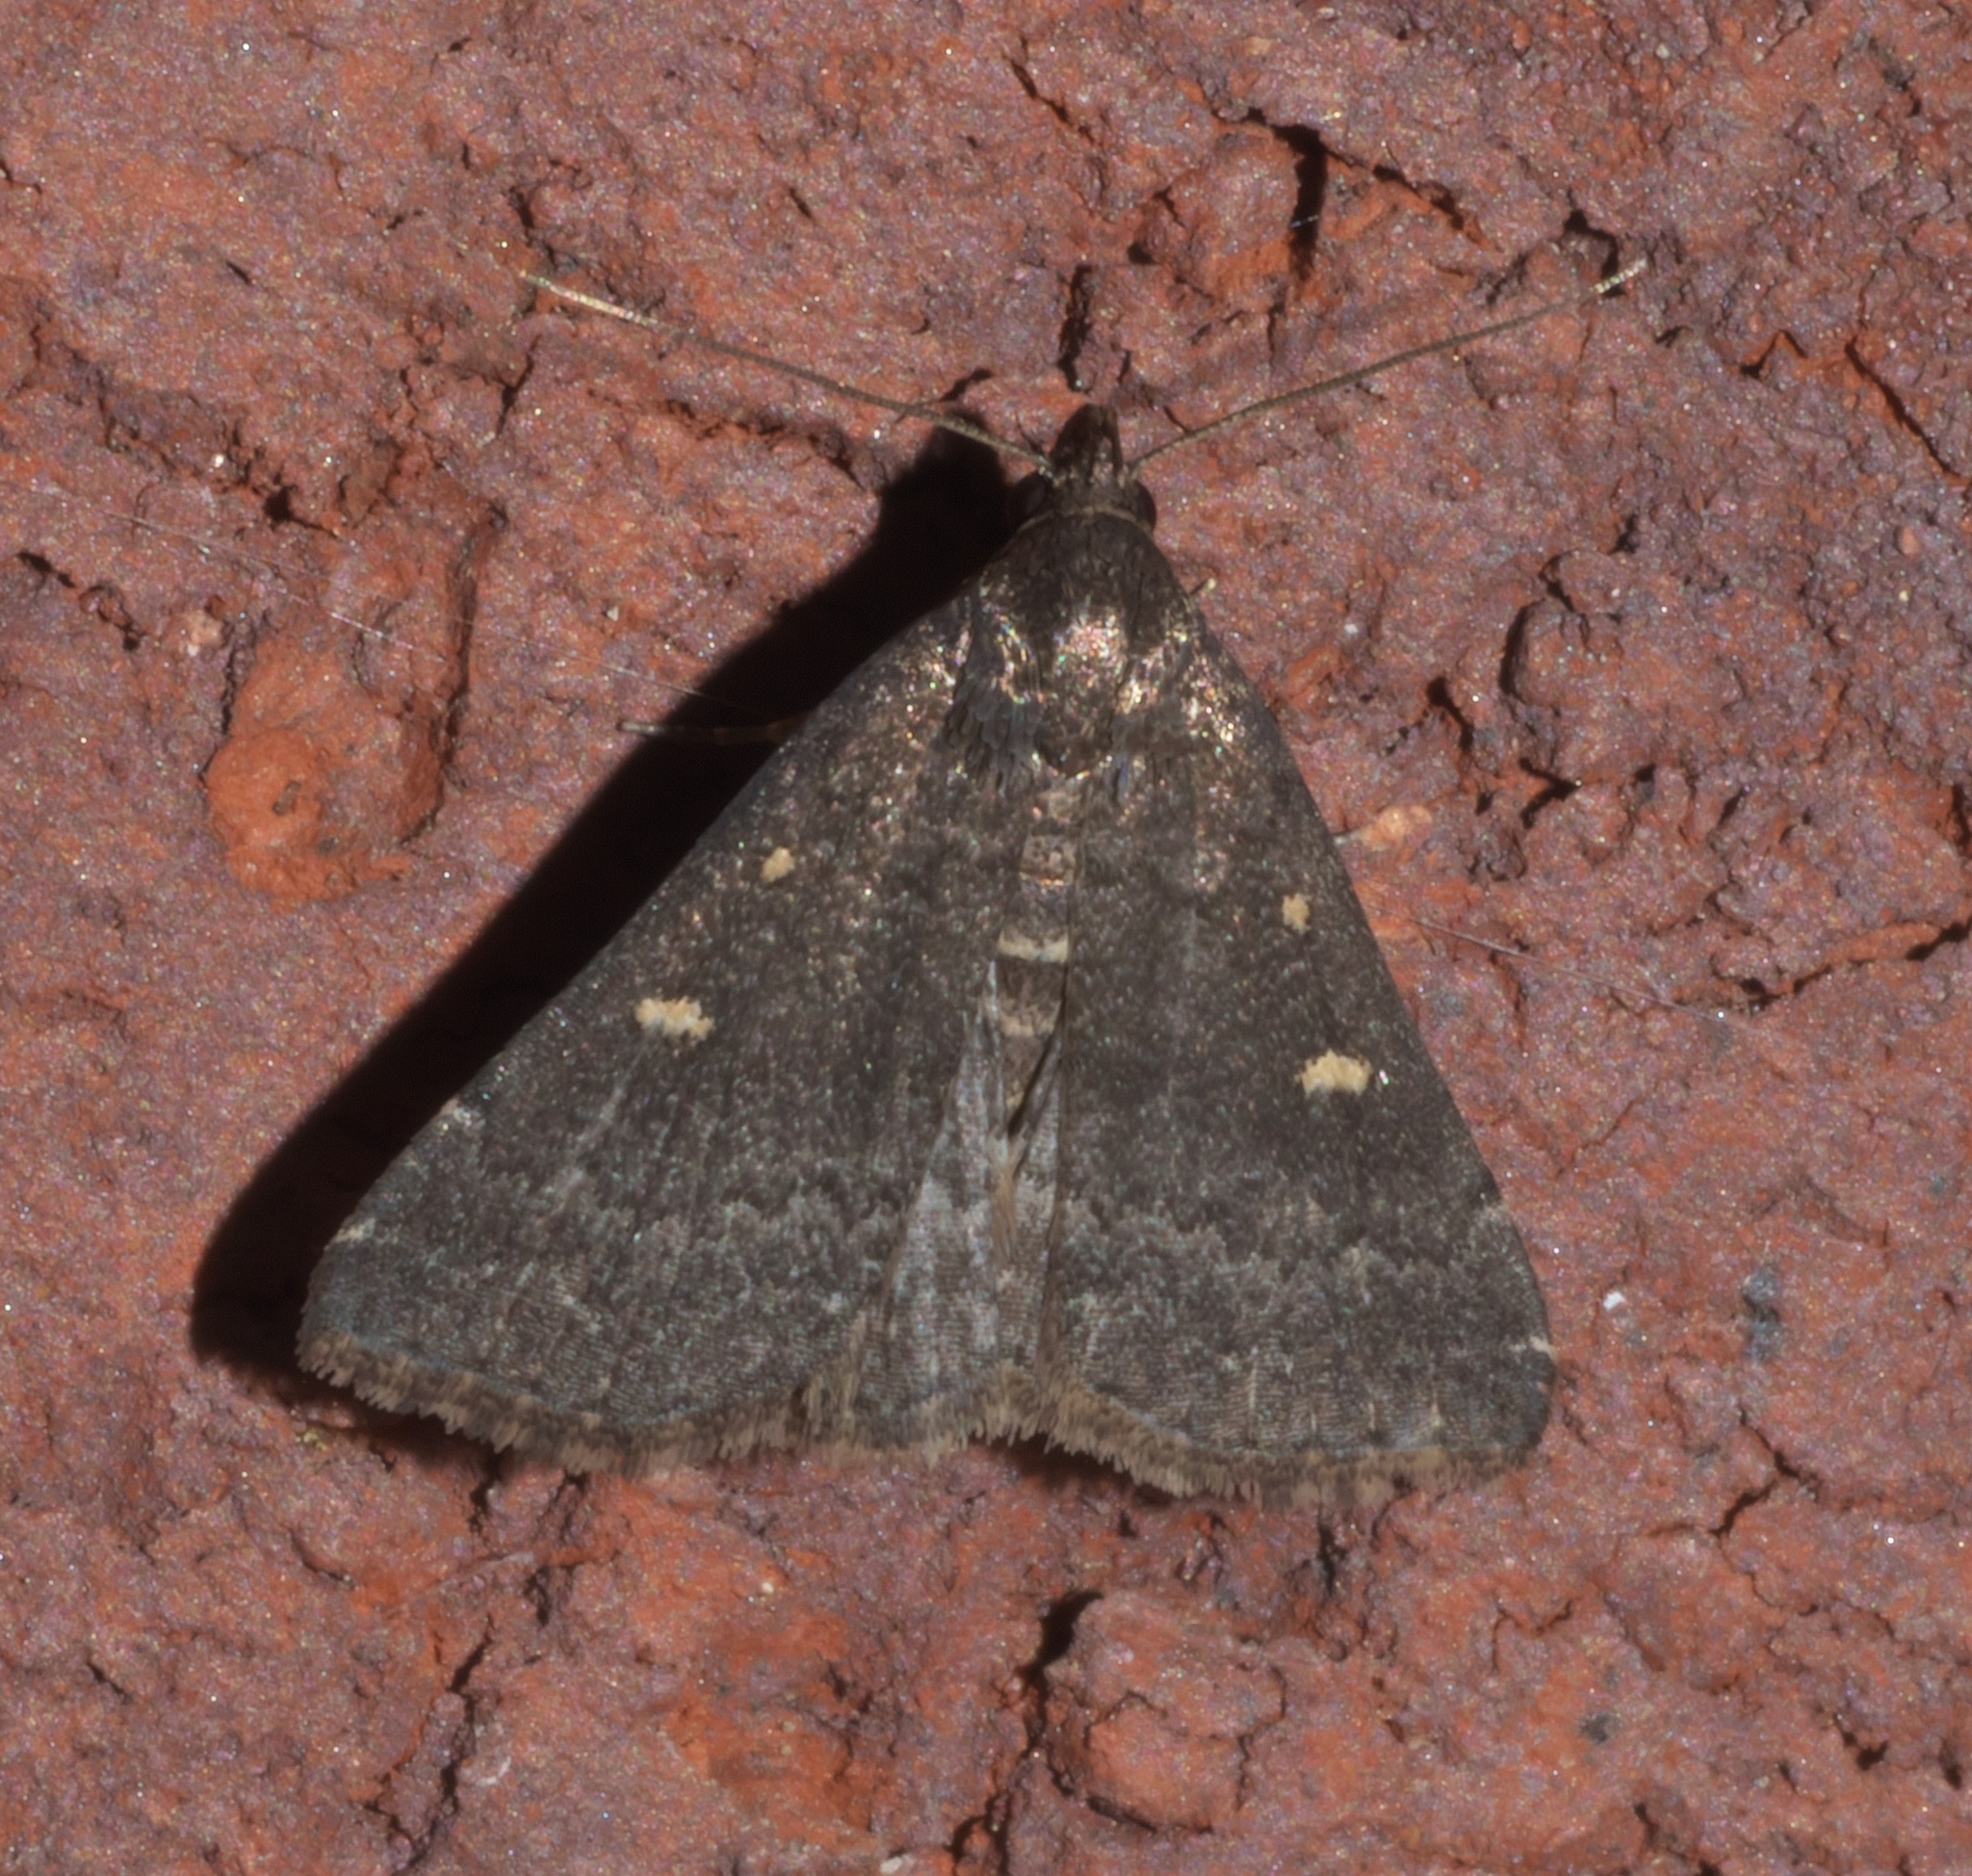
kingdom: Animalia
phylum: Arthropoda
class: Insecta
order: Lepidoptera
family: Erebidae
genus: Tetanolita
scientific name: Tetanolita mynesalis
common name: Smoky tetanolita moth
